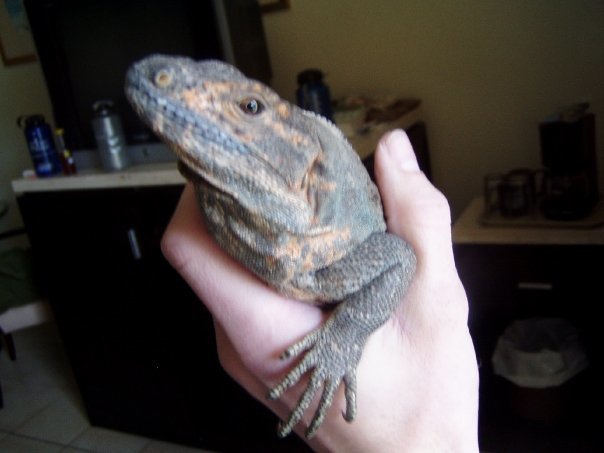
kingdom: Animalia
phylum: Chordata
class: Squamata
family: Iguanidae
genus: Ctenosaura
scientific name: Ctenosaura similis
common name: Black spiny-tailed iguana
